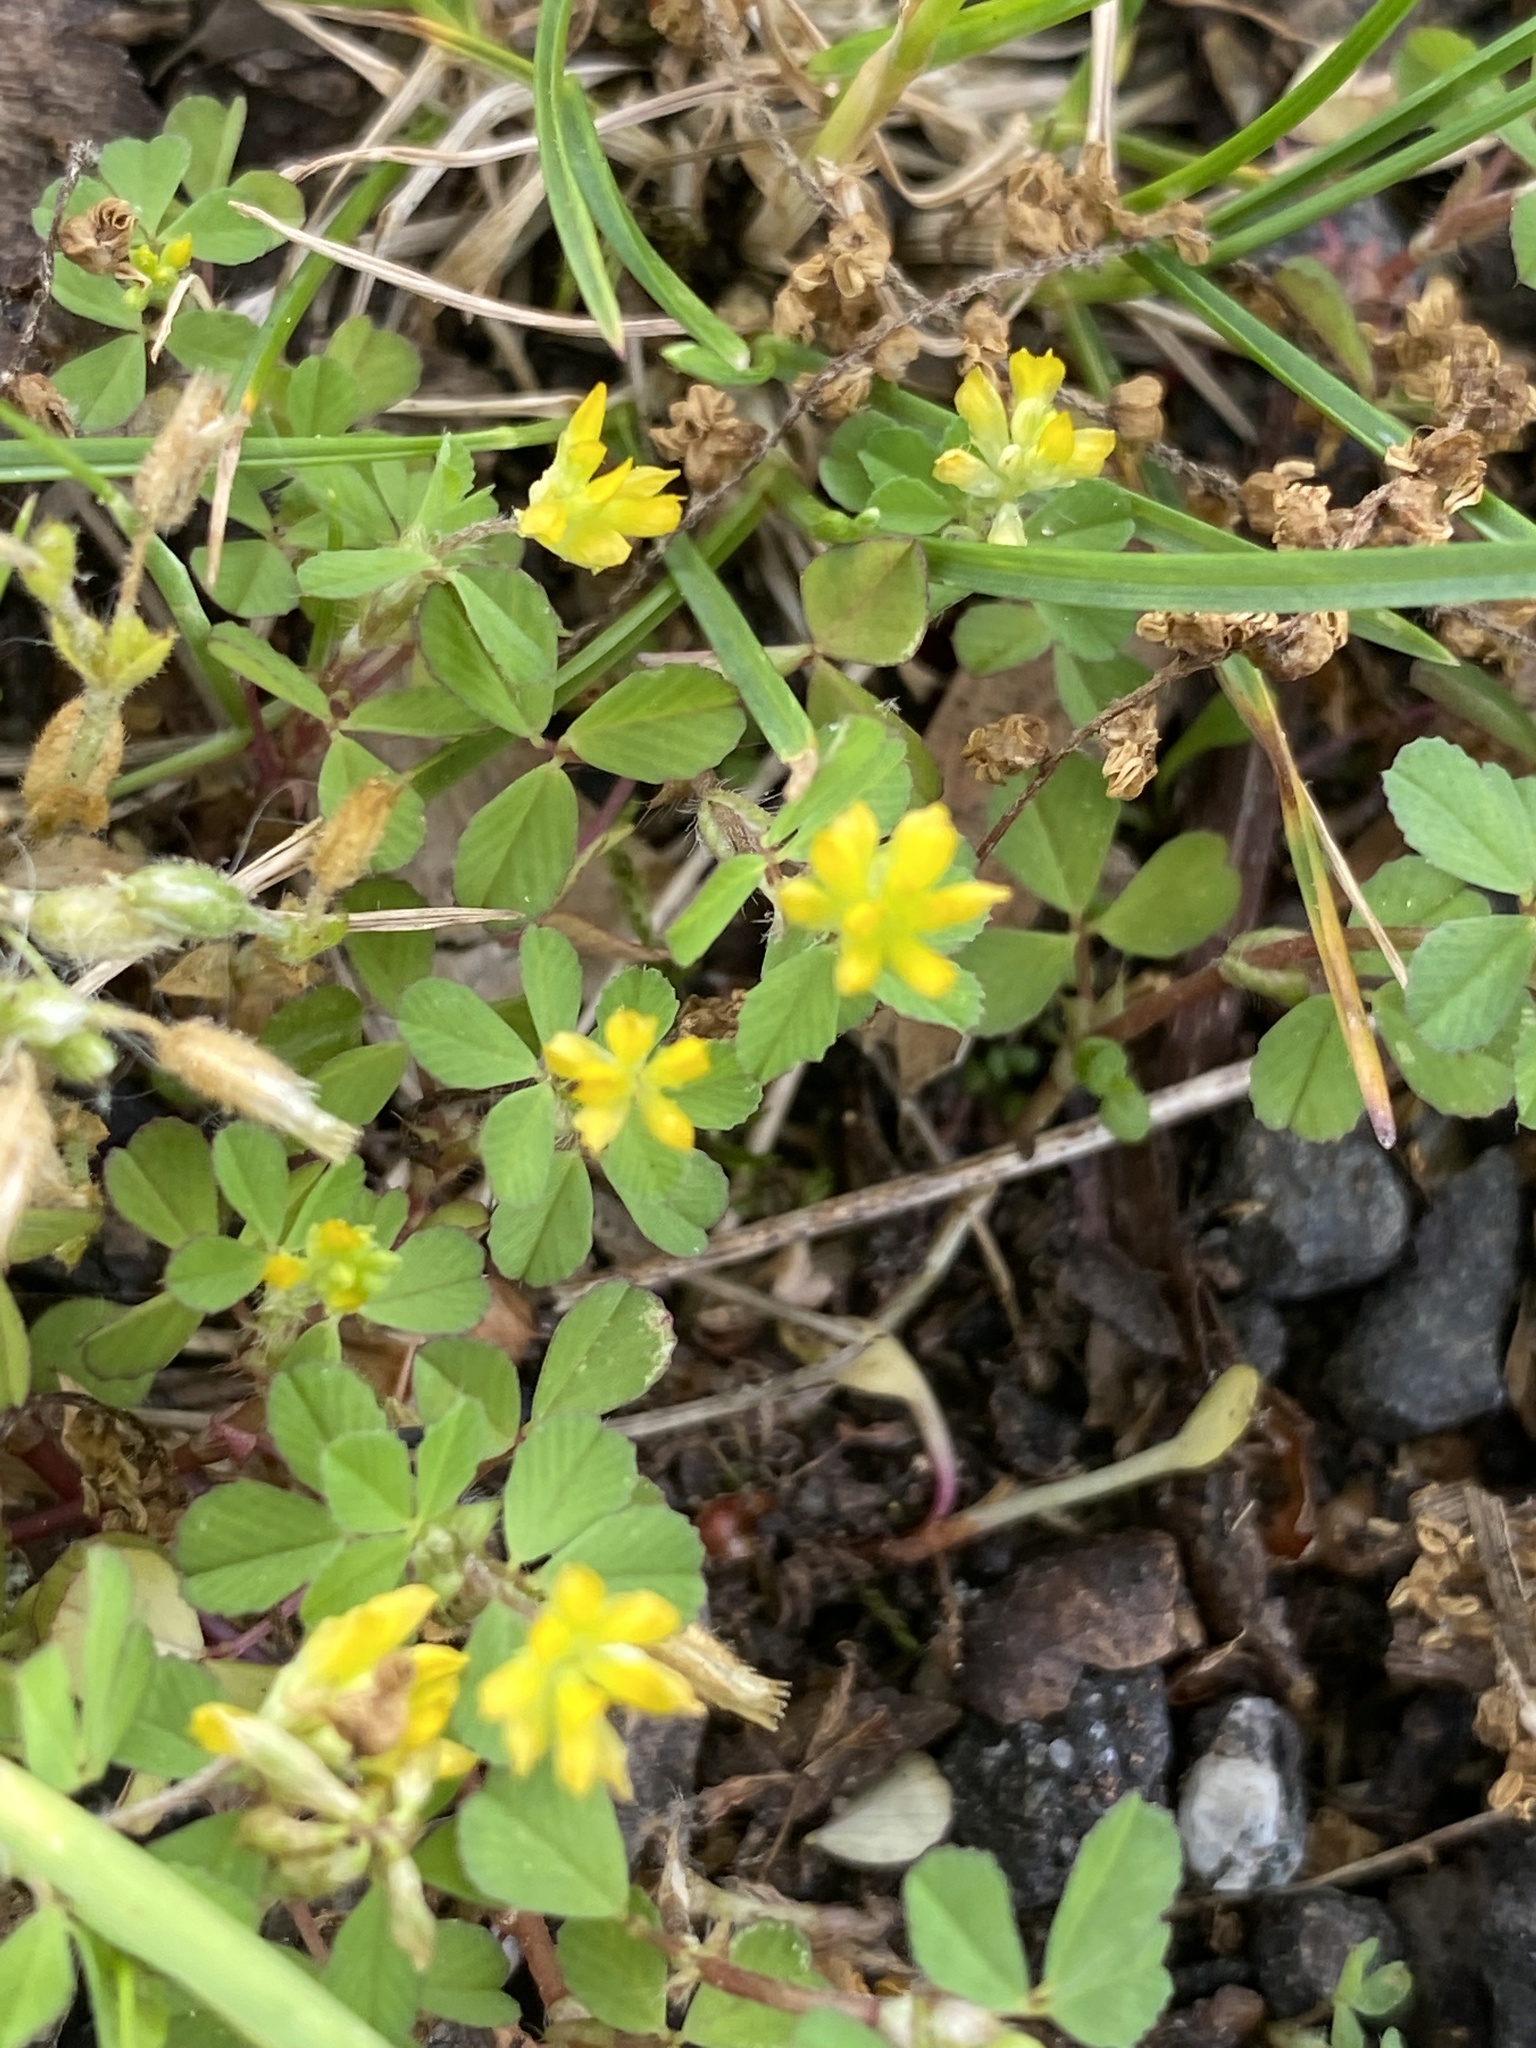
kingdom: Plantae
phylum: Tracheophyta
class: Magnoliopsida
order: Fabales
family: Fabaceae
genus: Trifolium
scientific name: Trifolium dubium
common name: Suckling clover
